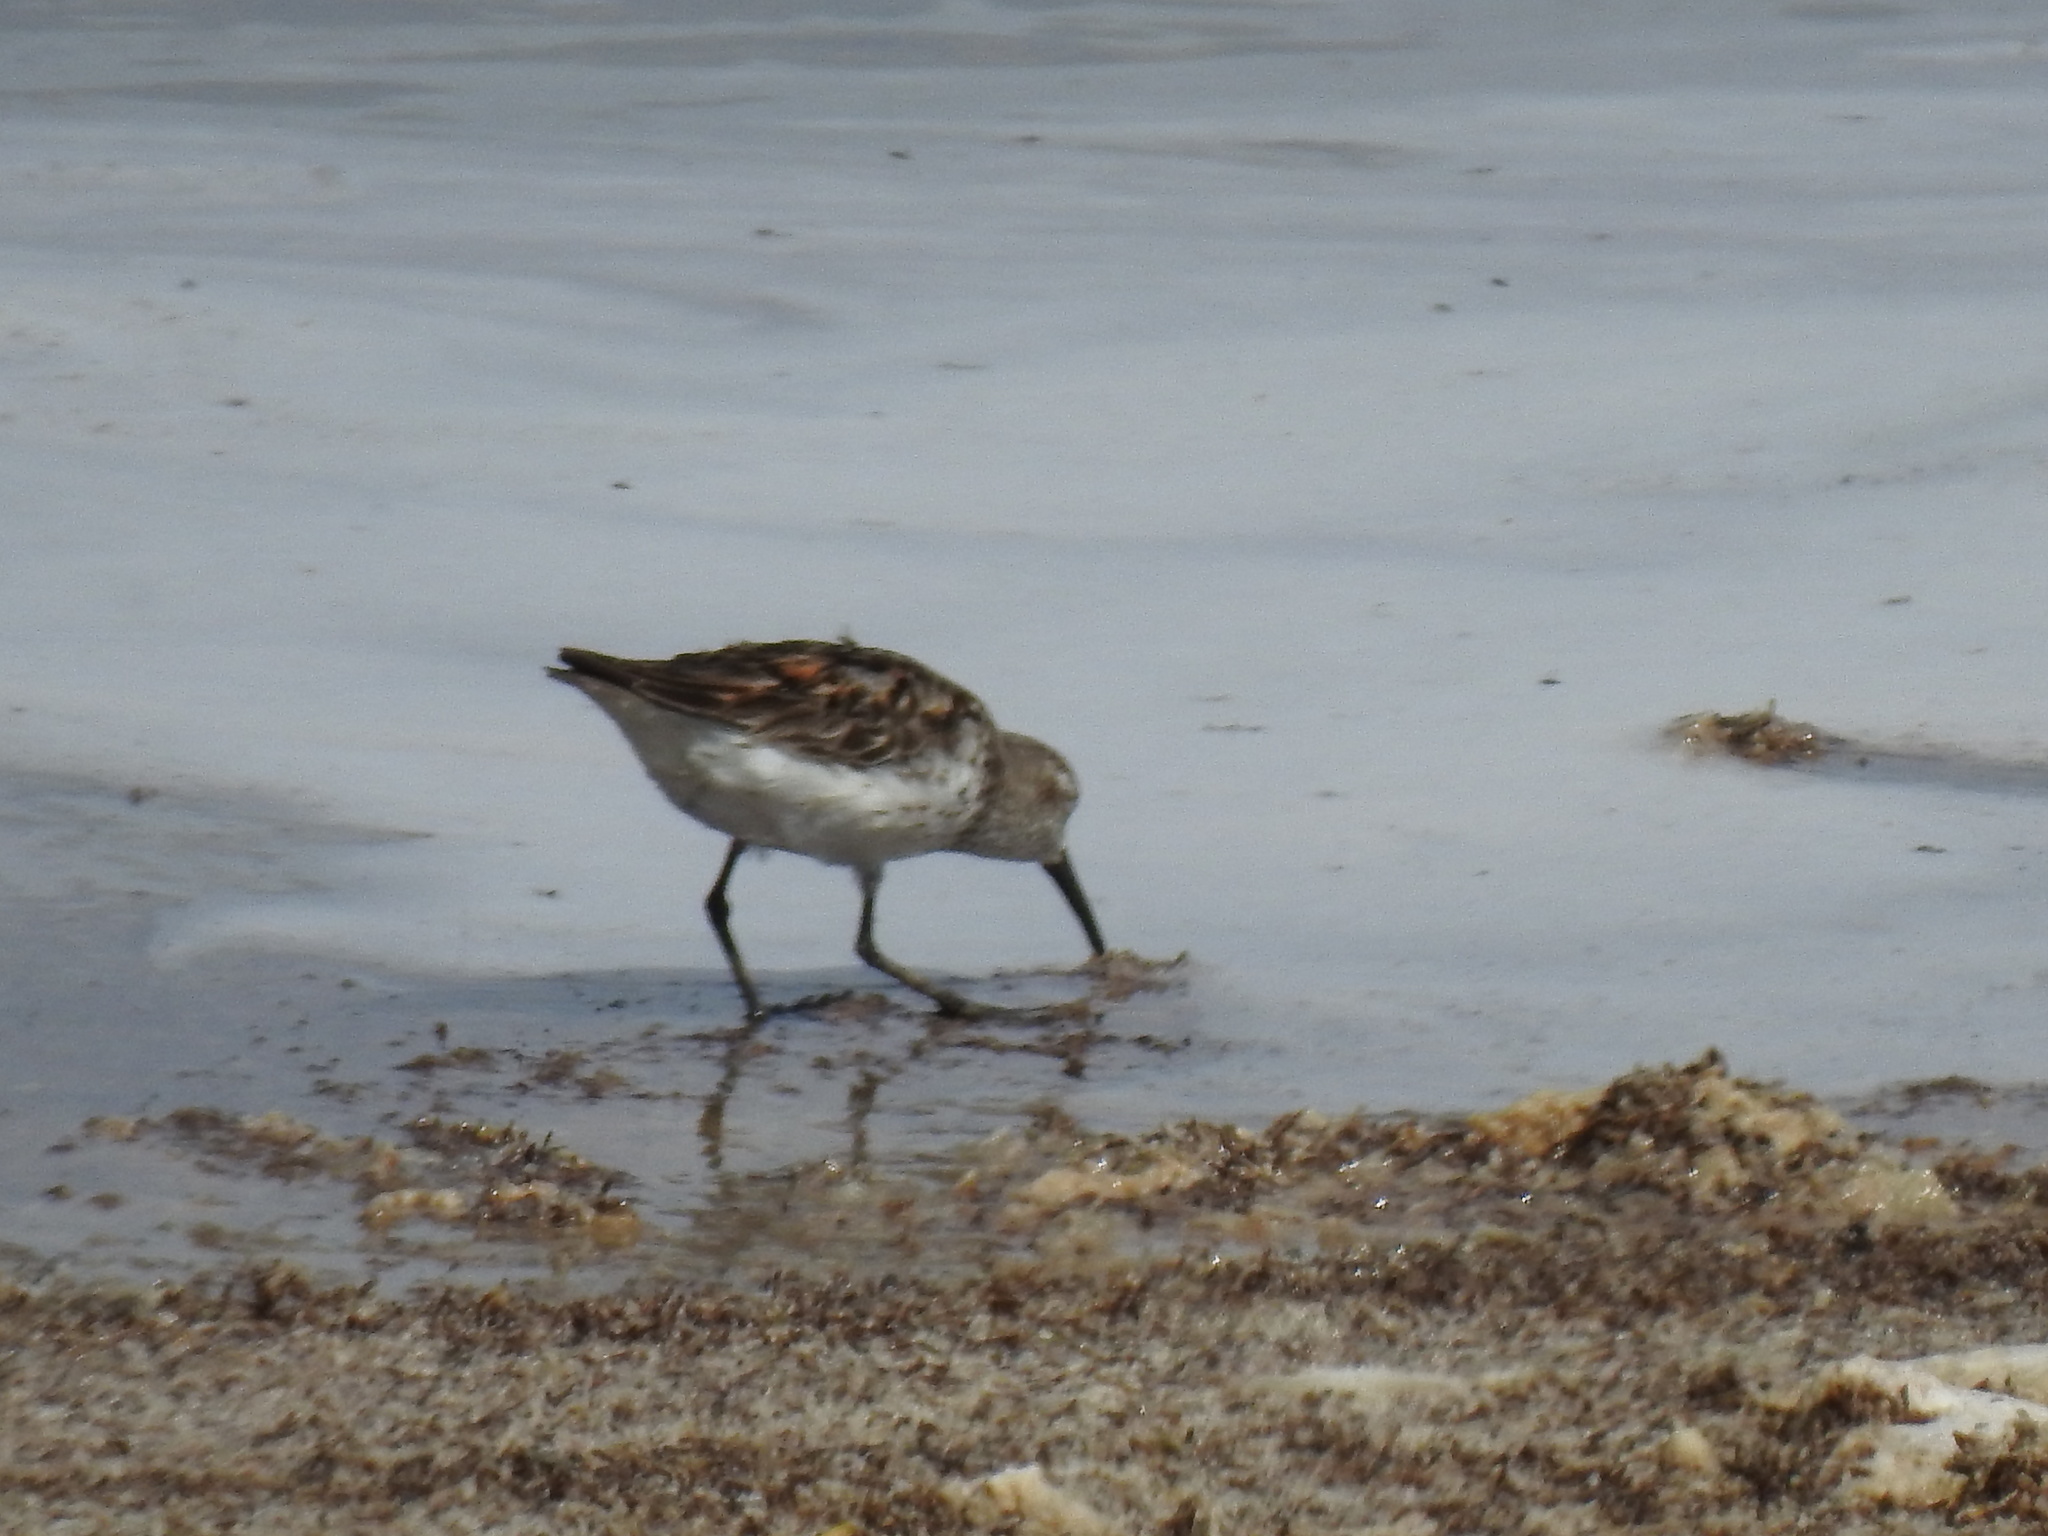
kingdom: Animalia
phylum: Chordata
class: Aves
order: Charadriiformes
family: Scolopacidae
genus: Calidris
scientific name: Calidris mauri
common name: Western sandpiper
